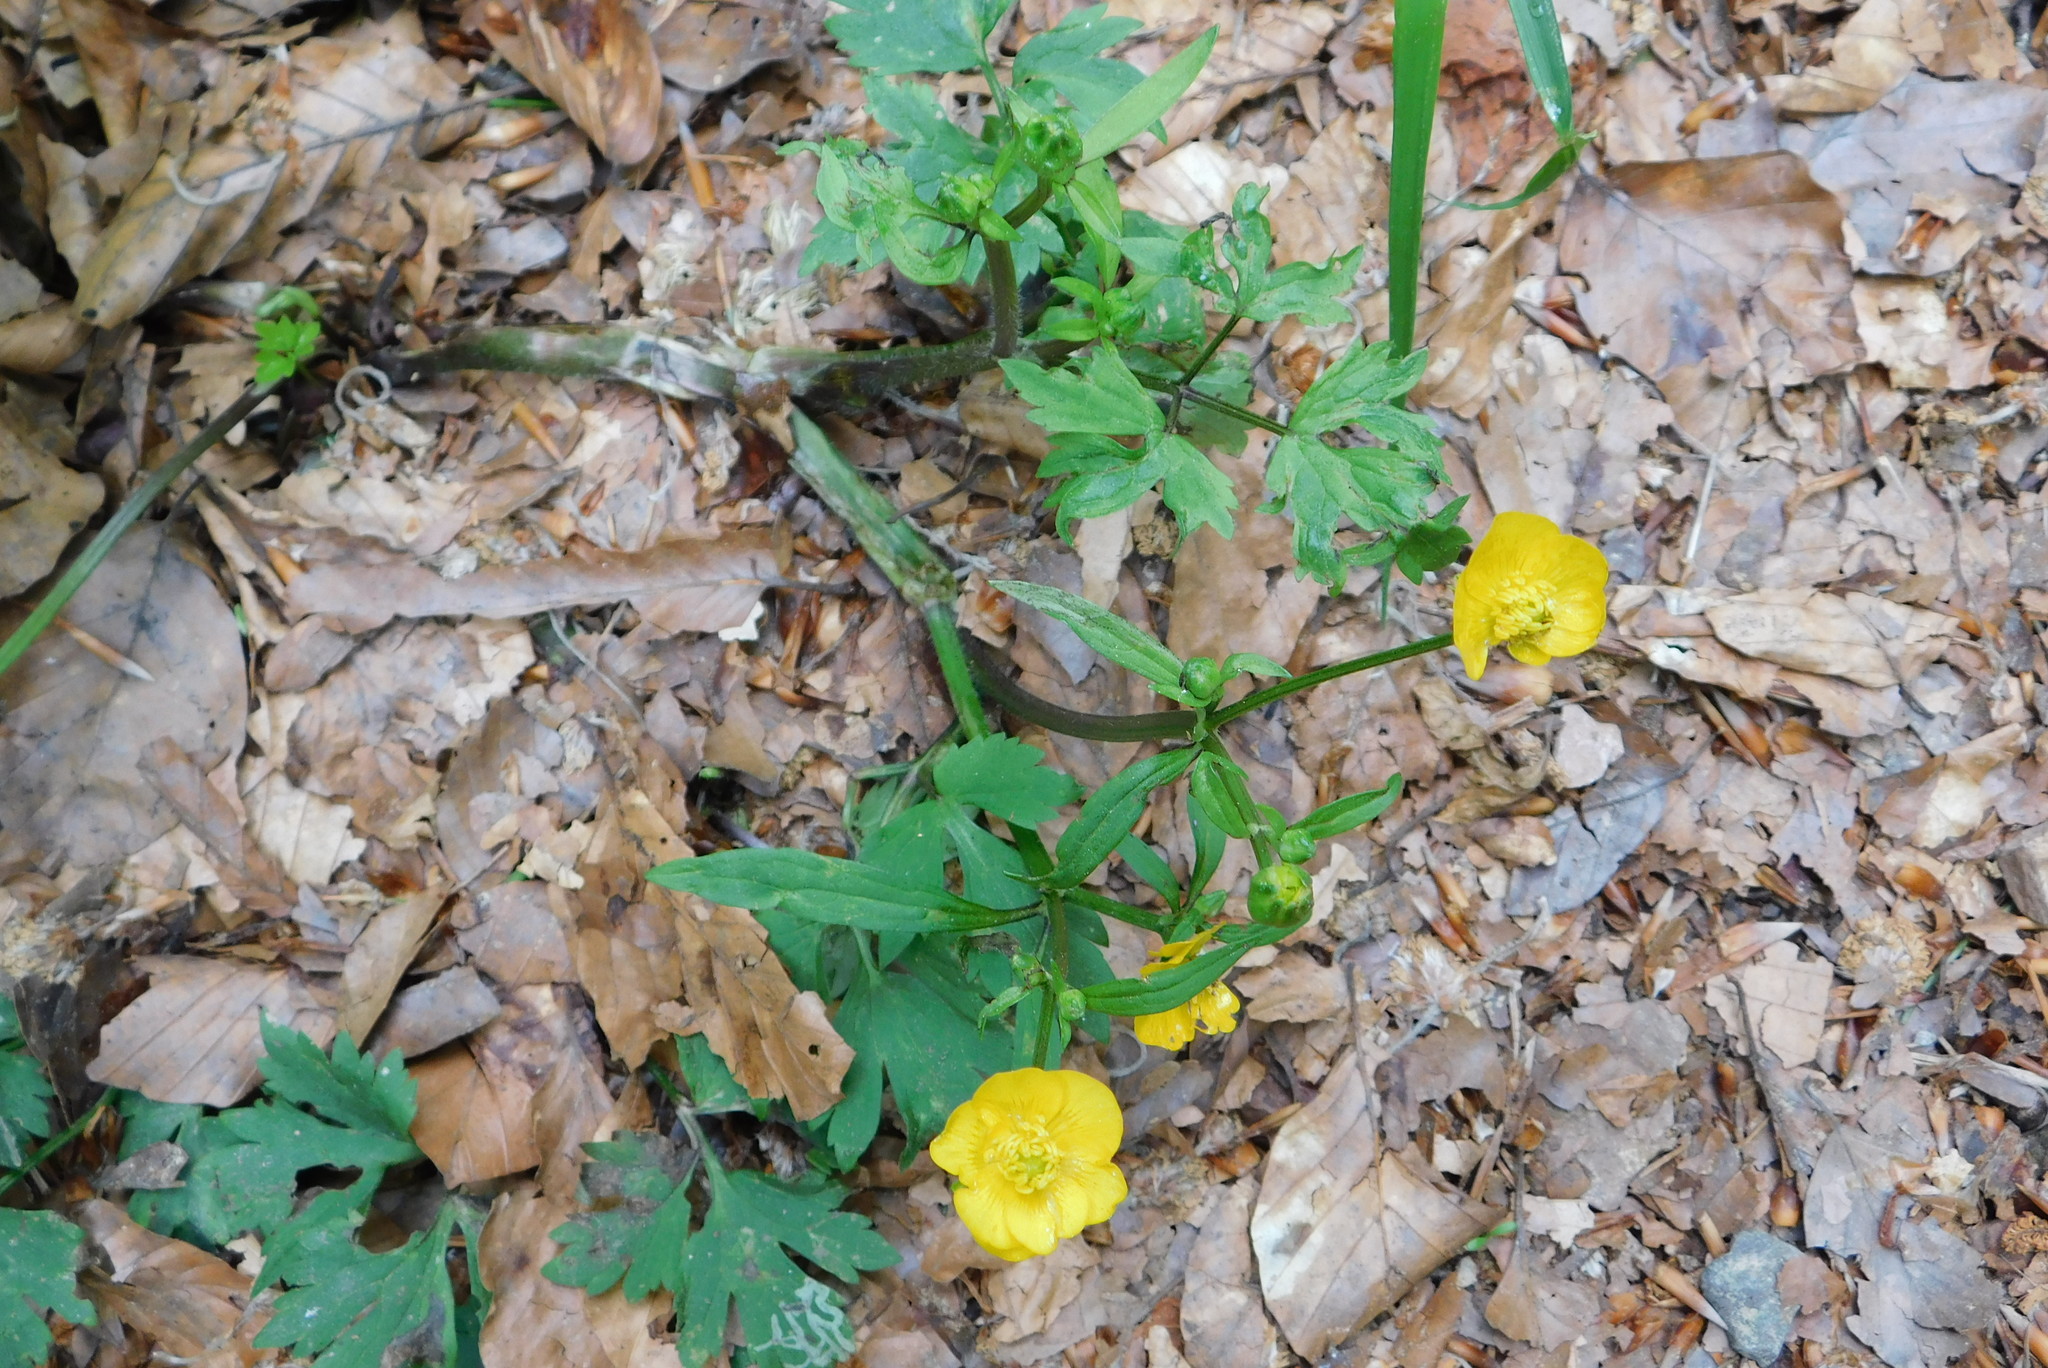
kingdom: Plantae
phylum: Tracheophyta
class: Magnoliopsida
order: Ranunculales
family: Ranunculaceae
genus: Ranunculus
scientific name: Ranunculus repens
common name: Creeping buttercup
